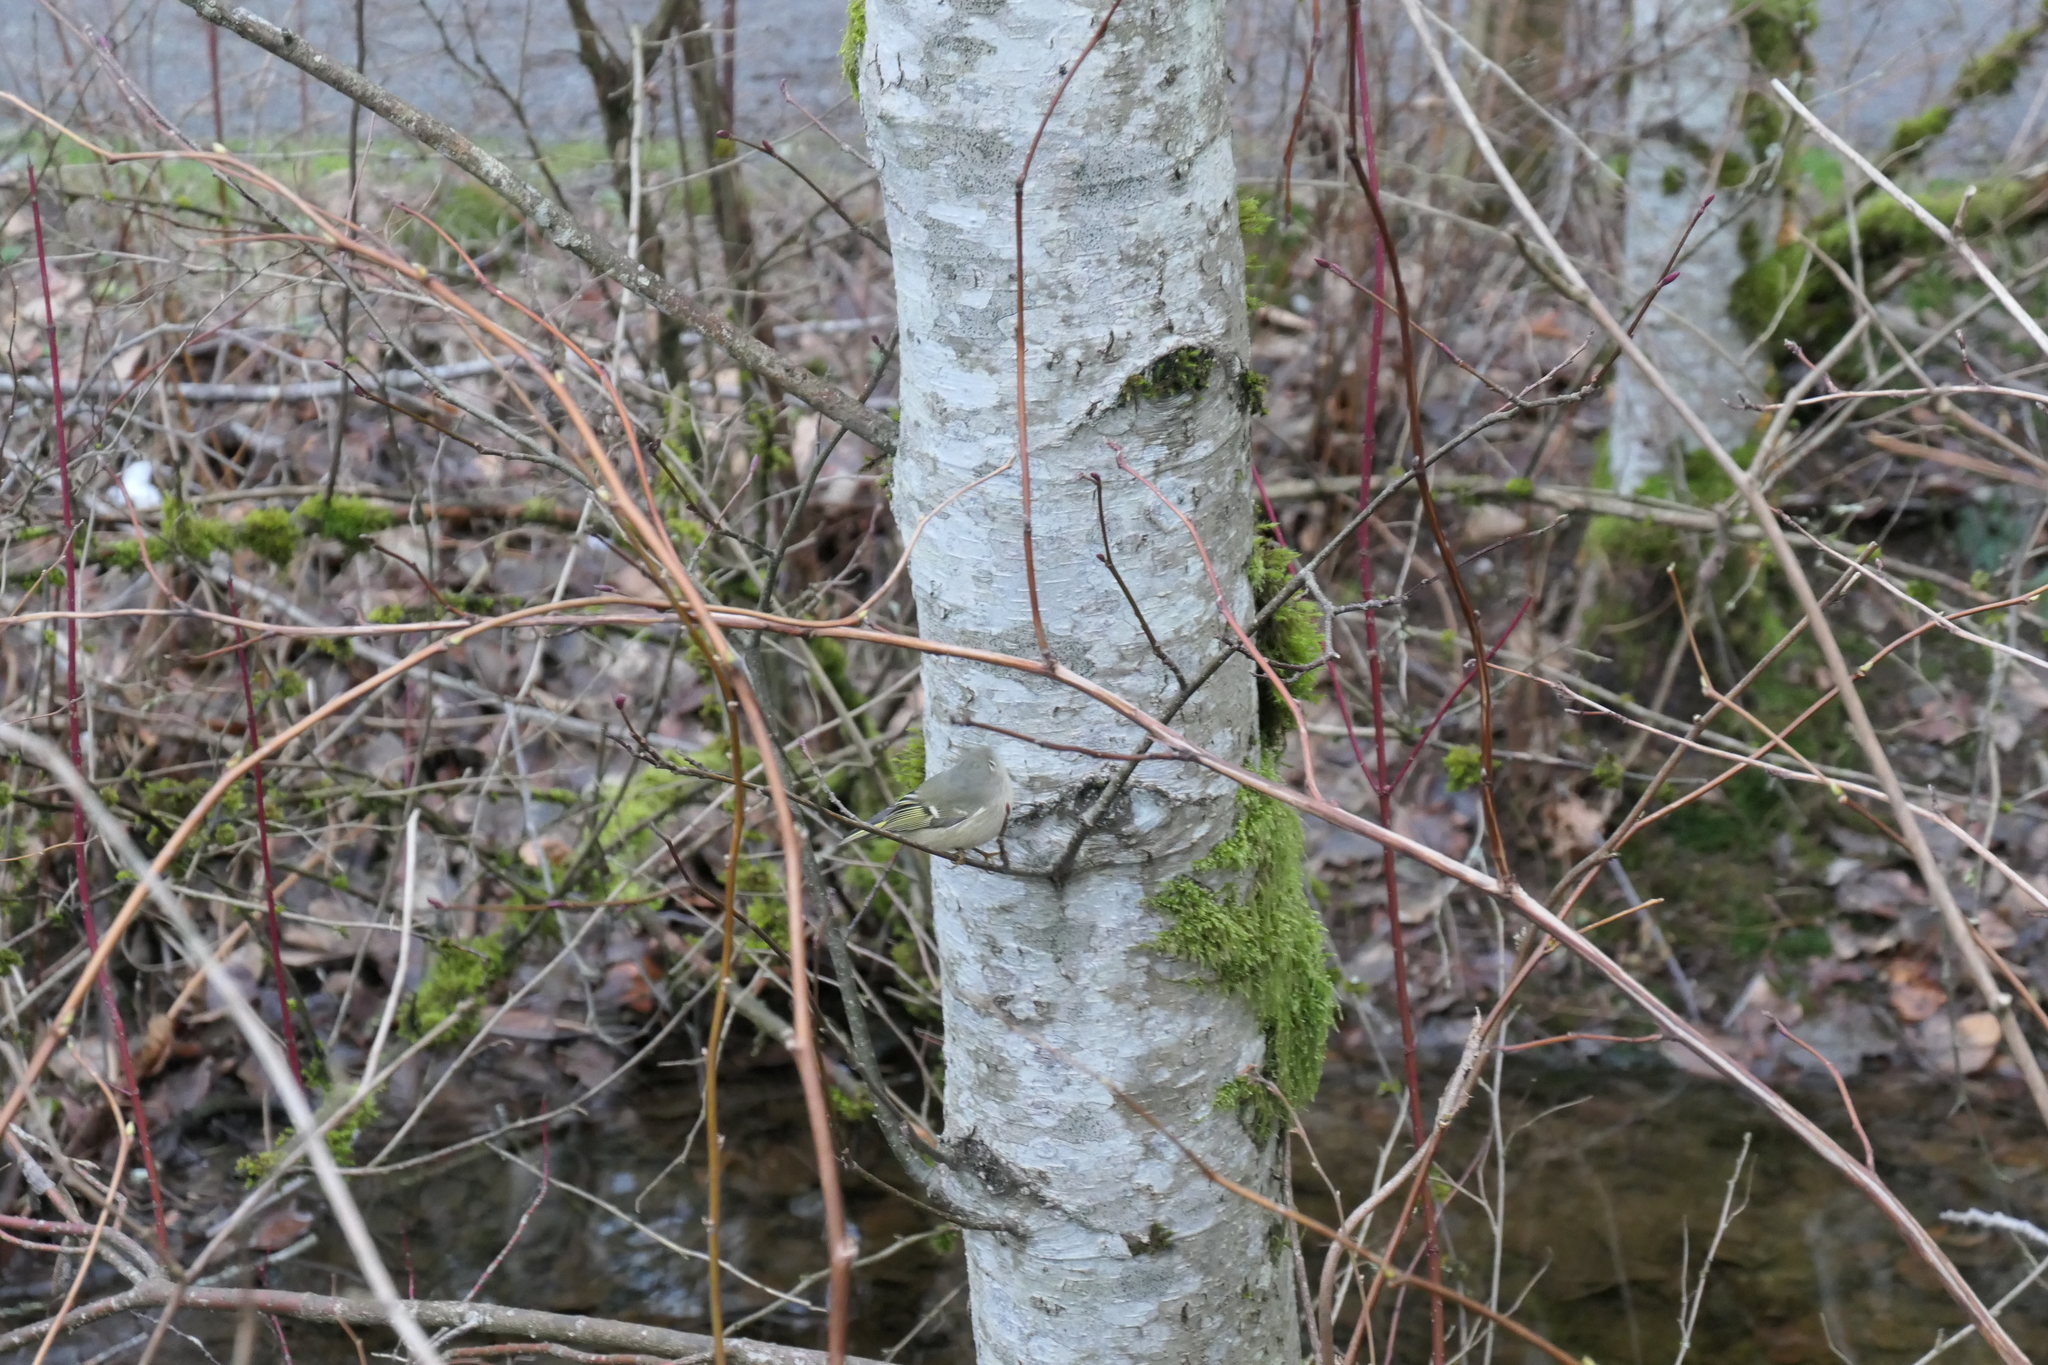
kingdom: Animalia
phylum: Chordata
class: Aves
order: Passeriformes
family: Regulidae
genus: Regulus
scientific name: Regulus calendula
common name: Ruby-crowned kinglet
